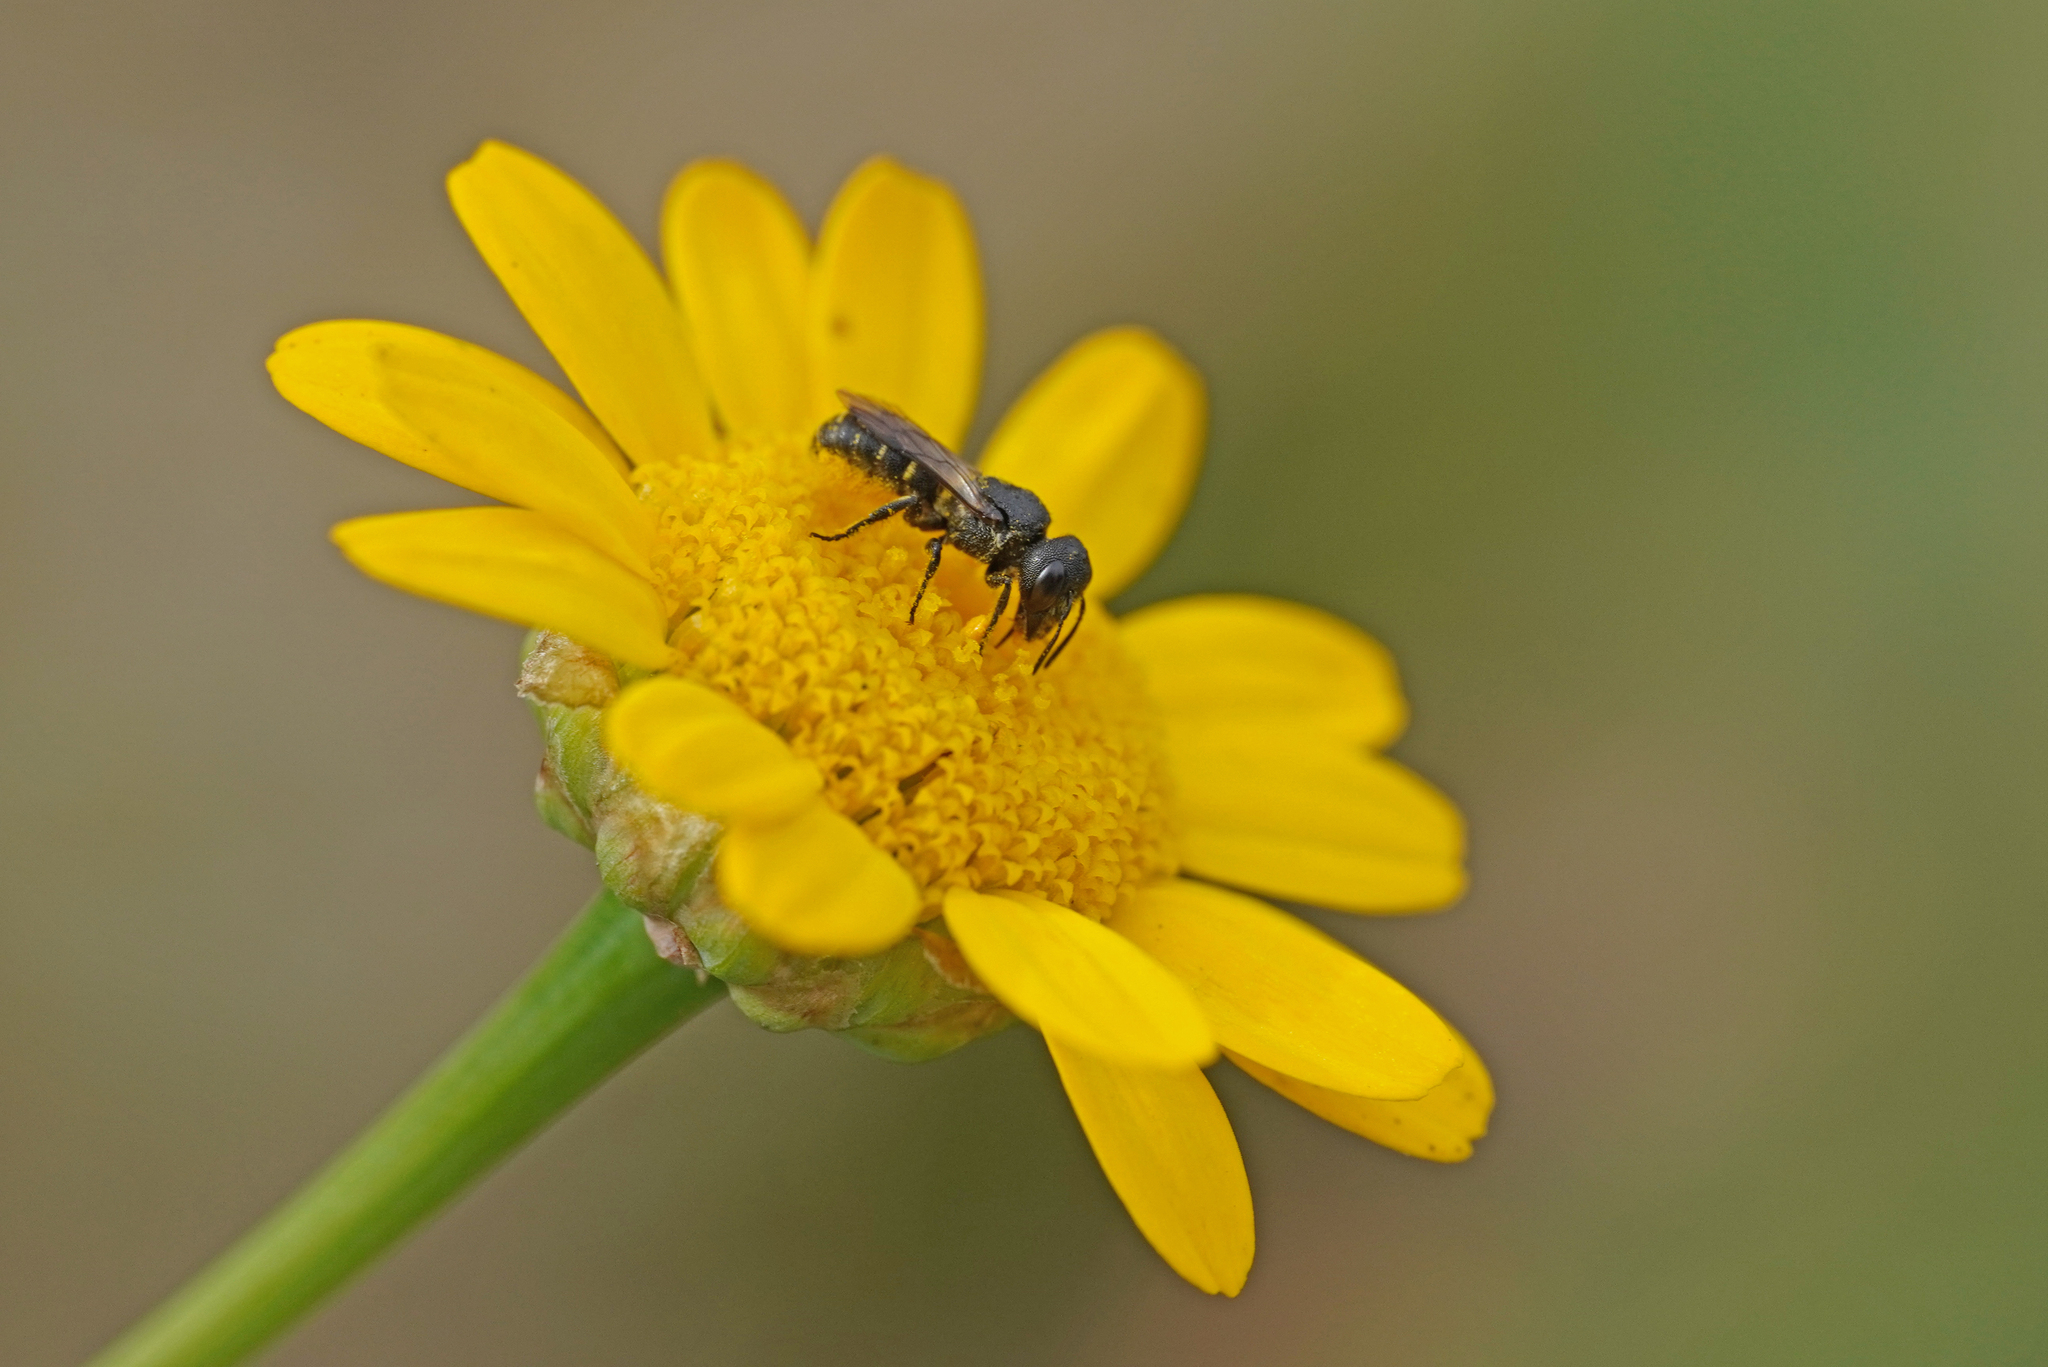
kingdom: Animalia
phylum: Arthropoda
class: Insecta
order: Hymenoptera
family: Megachilidae
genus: Heriades
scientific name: Heriades truncorum
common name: Ridge-saddled carpenter bee
